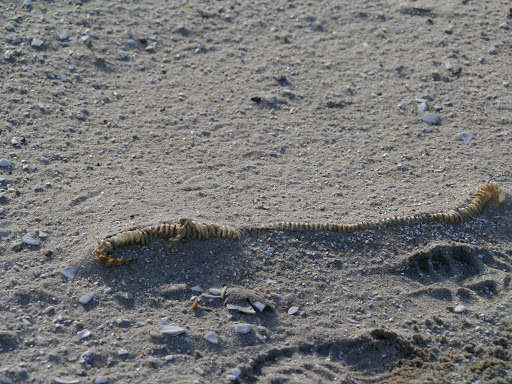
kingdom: Animalia
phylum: Mollusca
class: Gastropoda
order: Neogastropoda
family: Busyconidae
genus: Busycon
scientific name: Busycon carica
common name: Knobbed whelk
